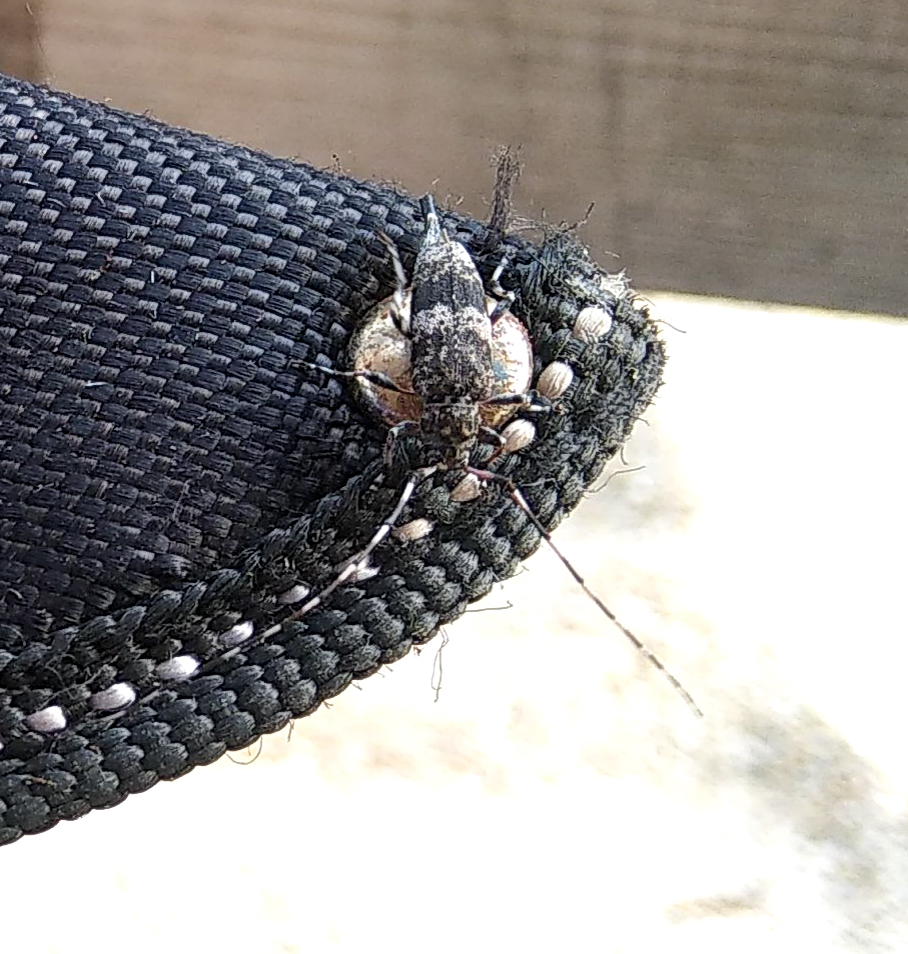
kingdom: Animalia
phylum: Arthropoda
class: Insecta
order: Coleoptera
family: Cerambycidae
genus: Acanthocinus
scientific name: Acanthocinus griseus
